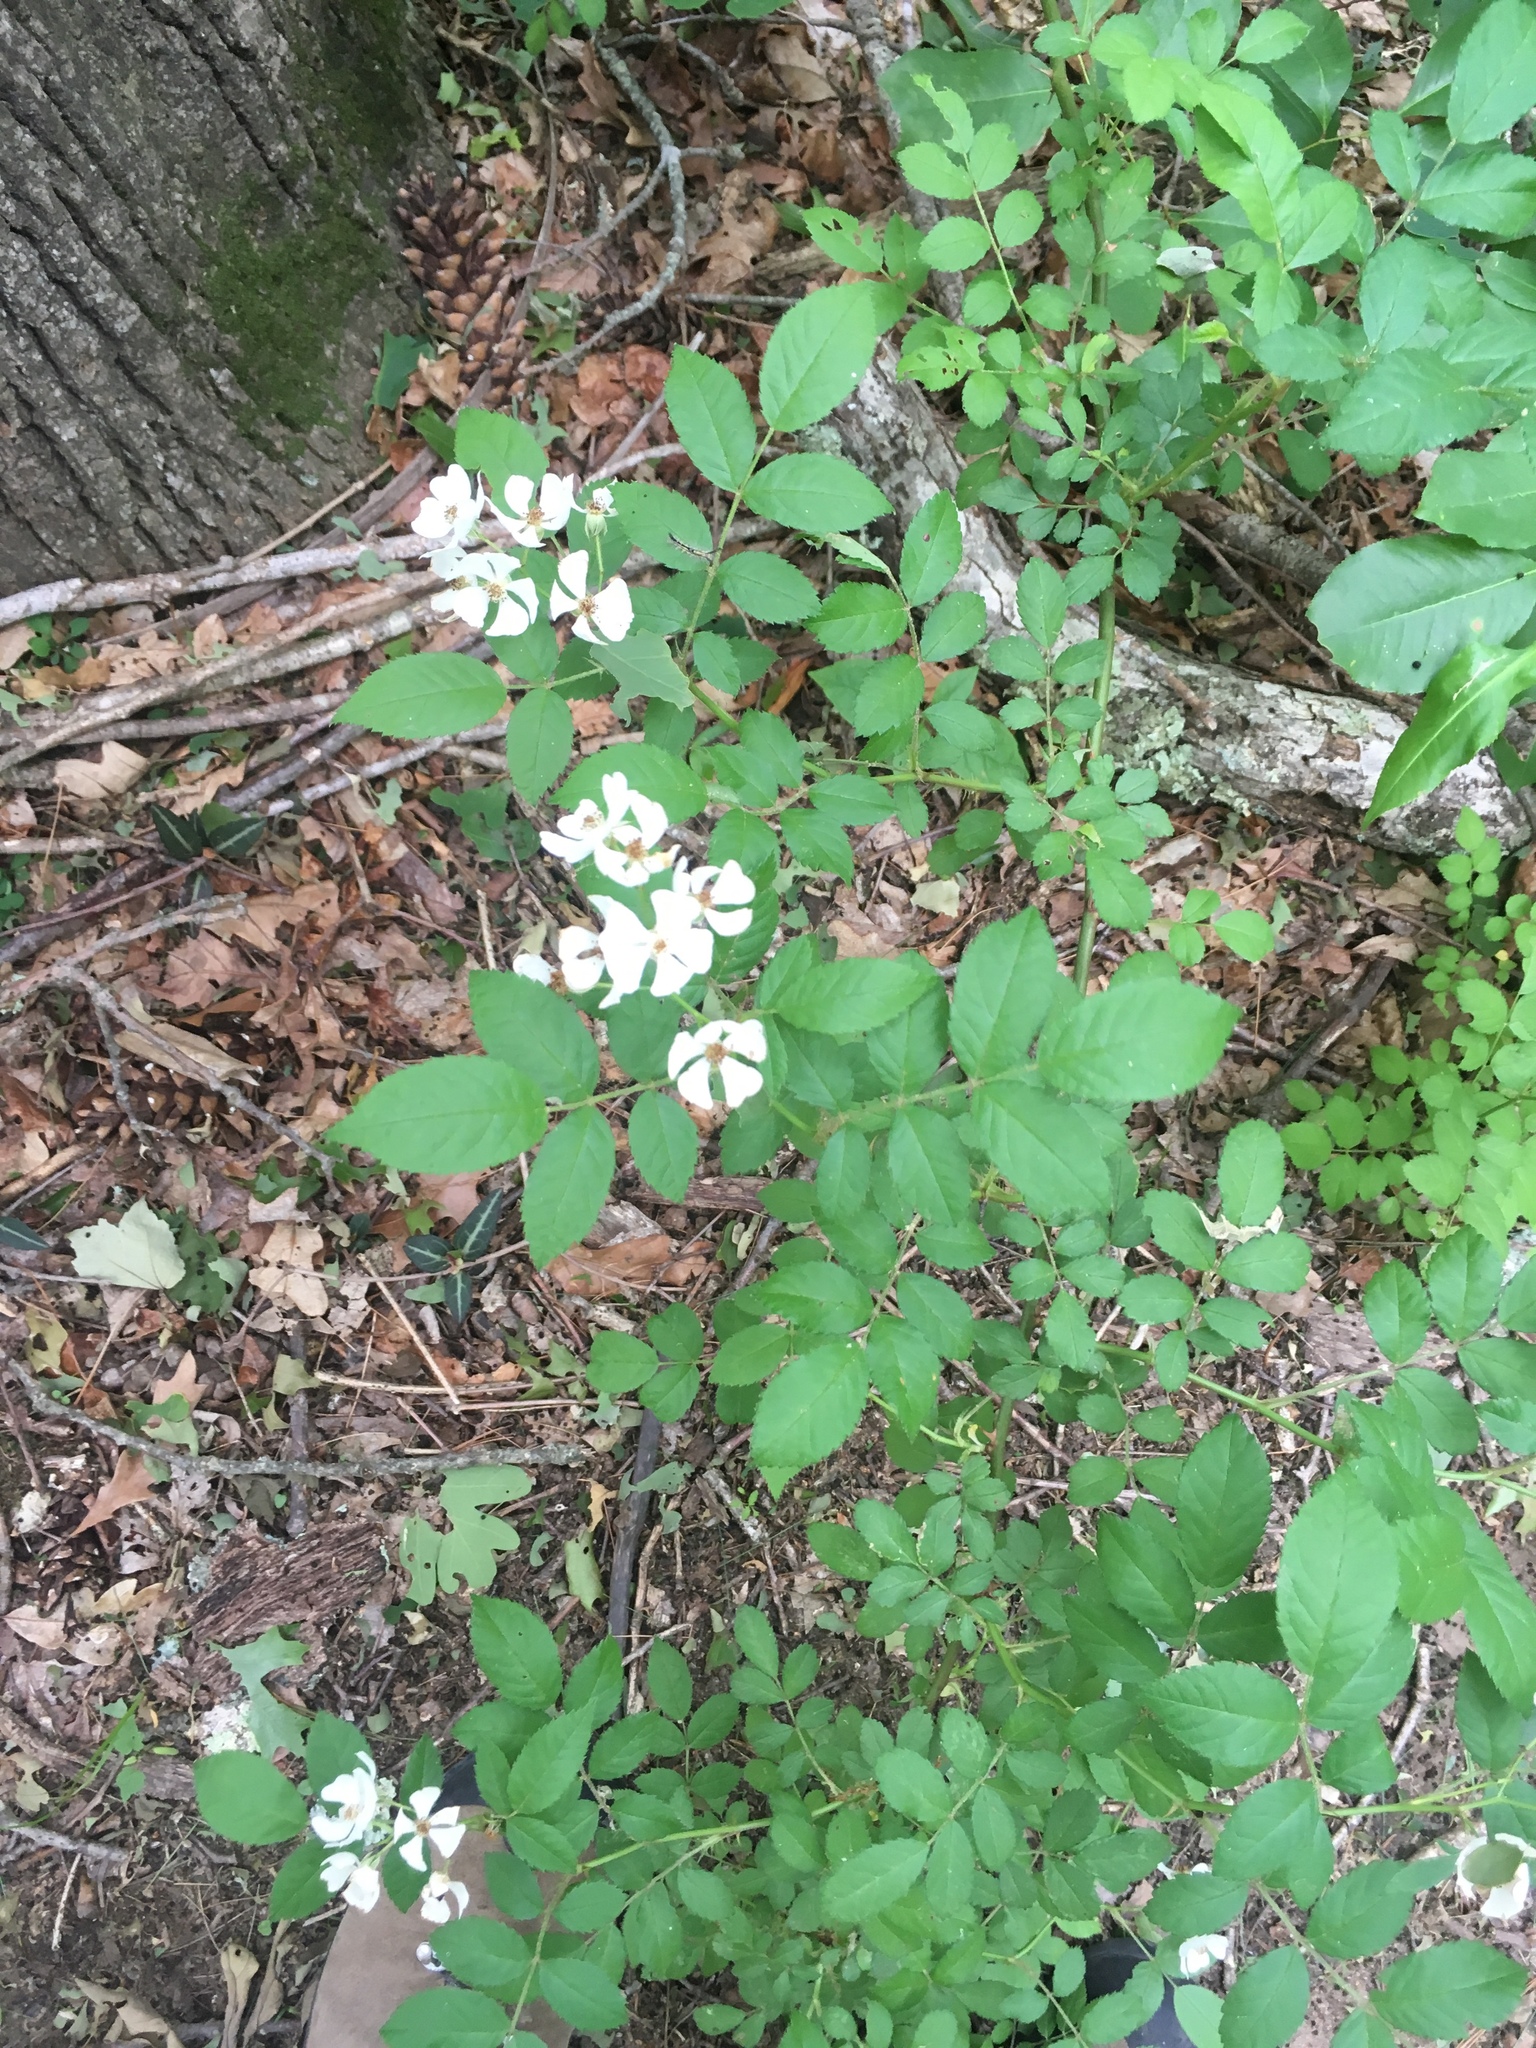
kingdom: Plantae
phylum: Tracheophyta
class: Magnoliopsida
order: Rosales
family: Rosaceae
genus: Rosa
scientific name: Rosa multiflora
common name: Multiflora rose
